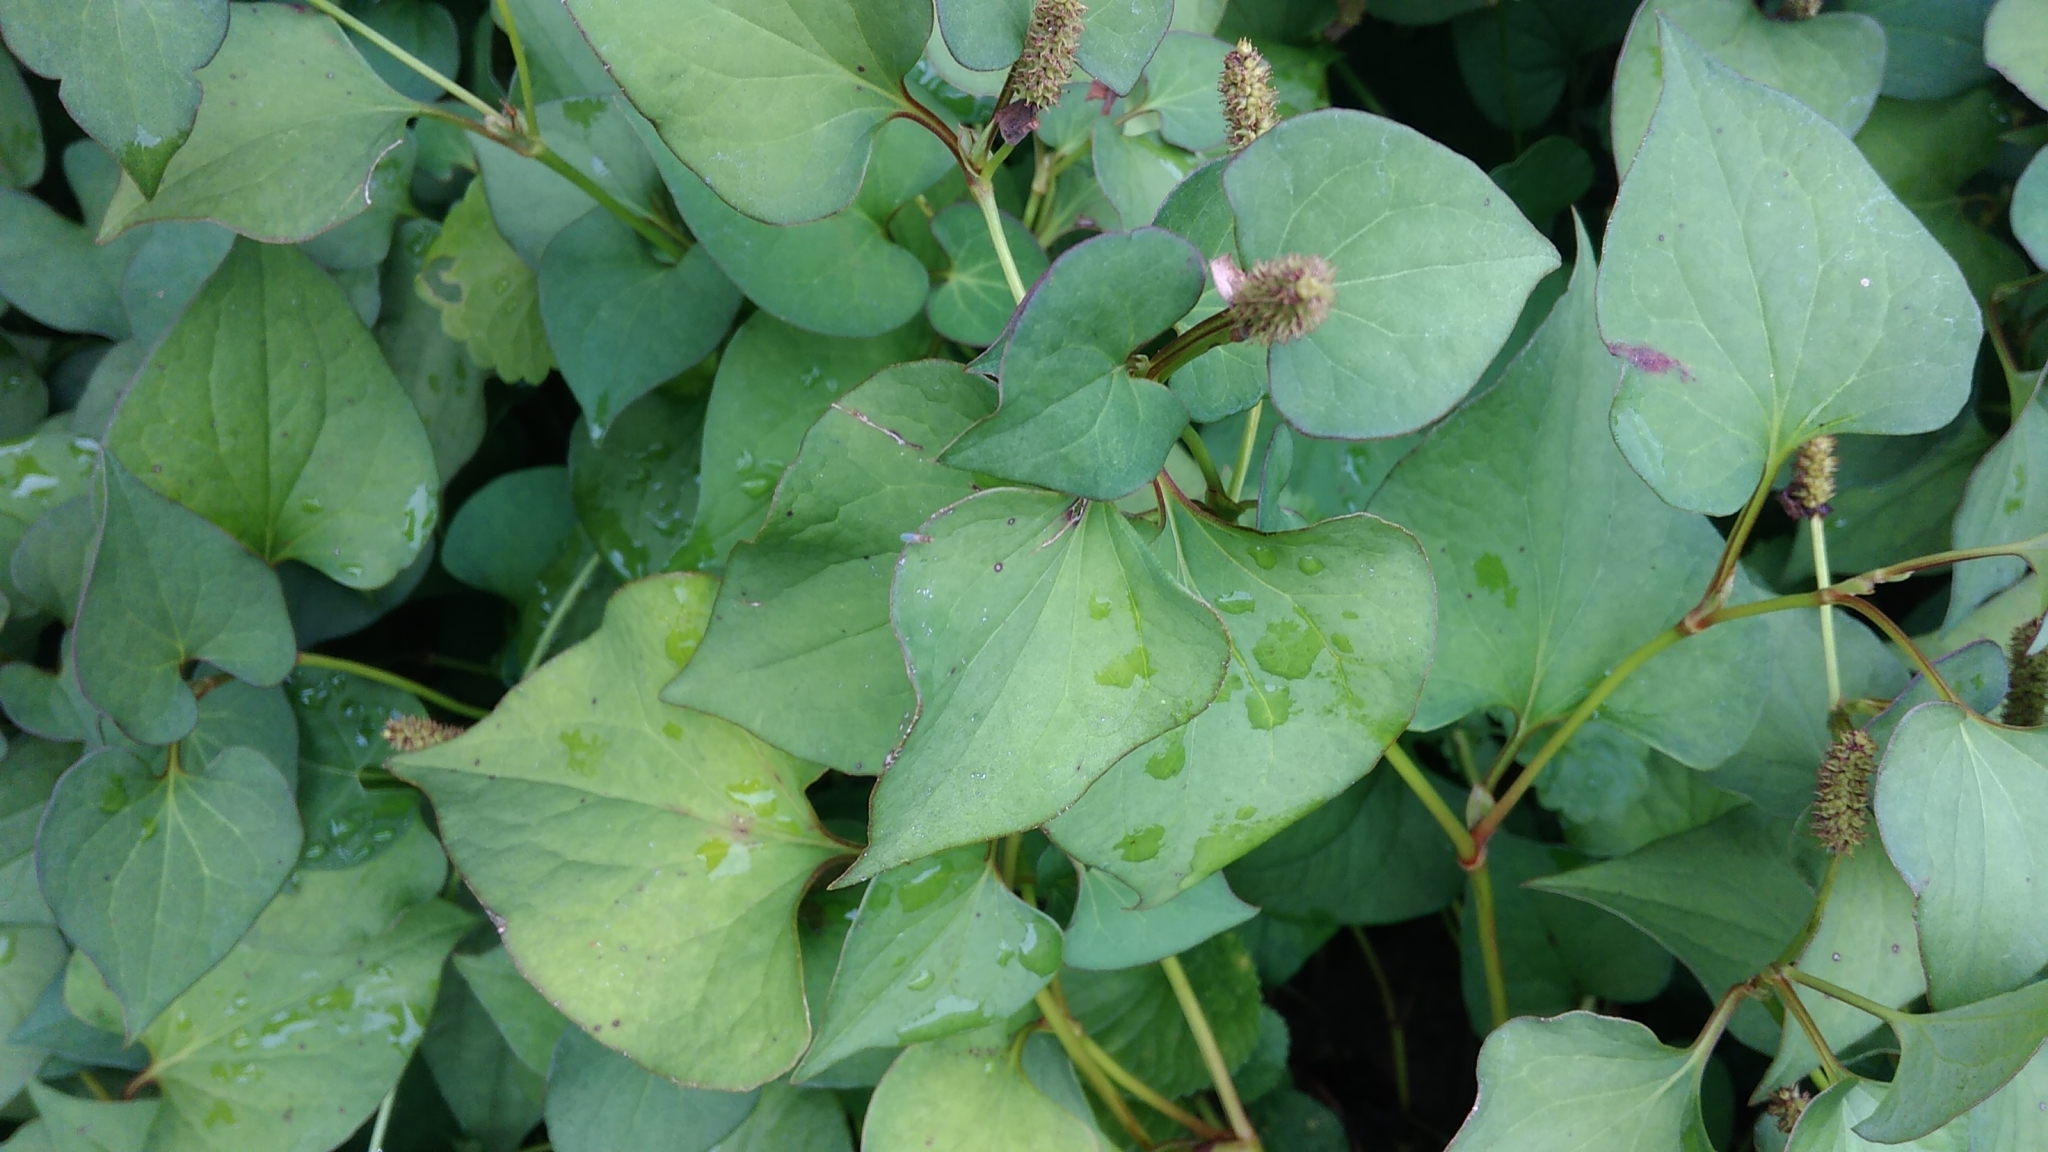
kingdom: Plantae
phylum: Tracheophyta
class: Magnoliopsida
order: Piperales
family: Saururaceae
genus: Houttuynia
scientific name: Houttuynia cordata
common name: Chameleon
